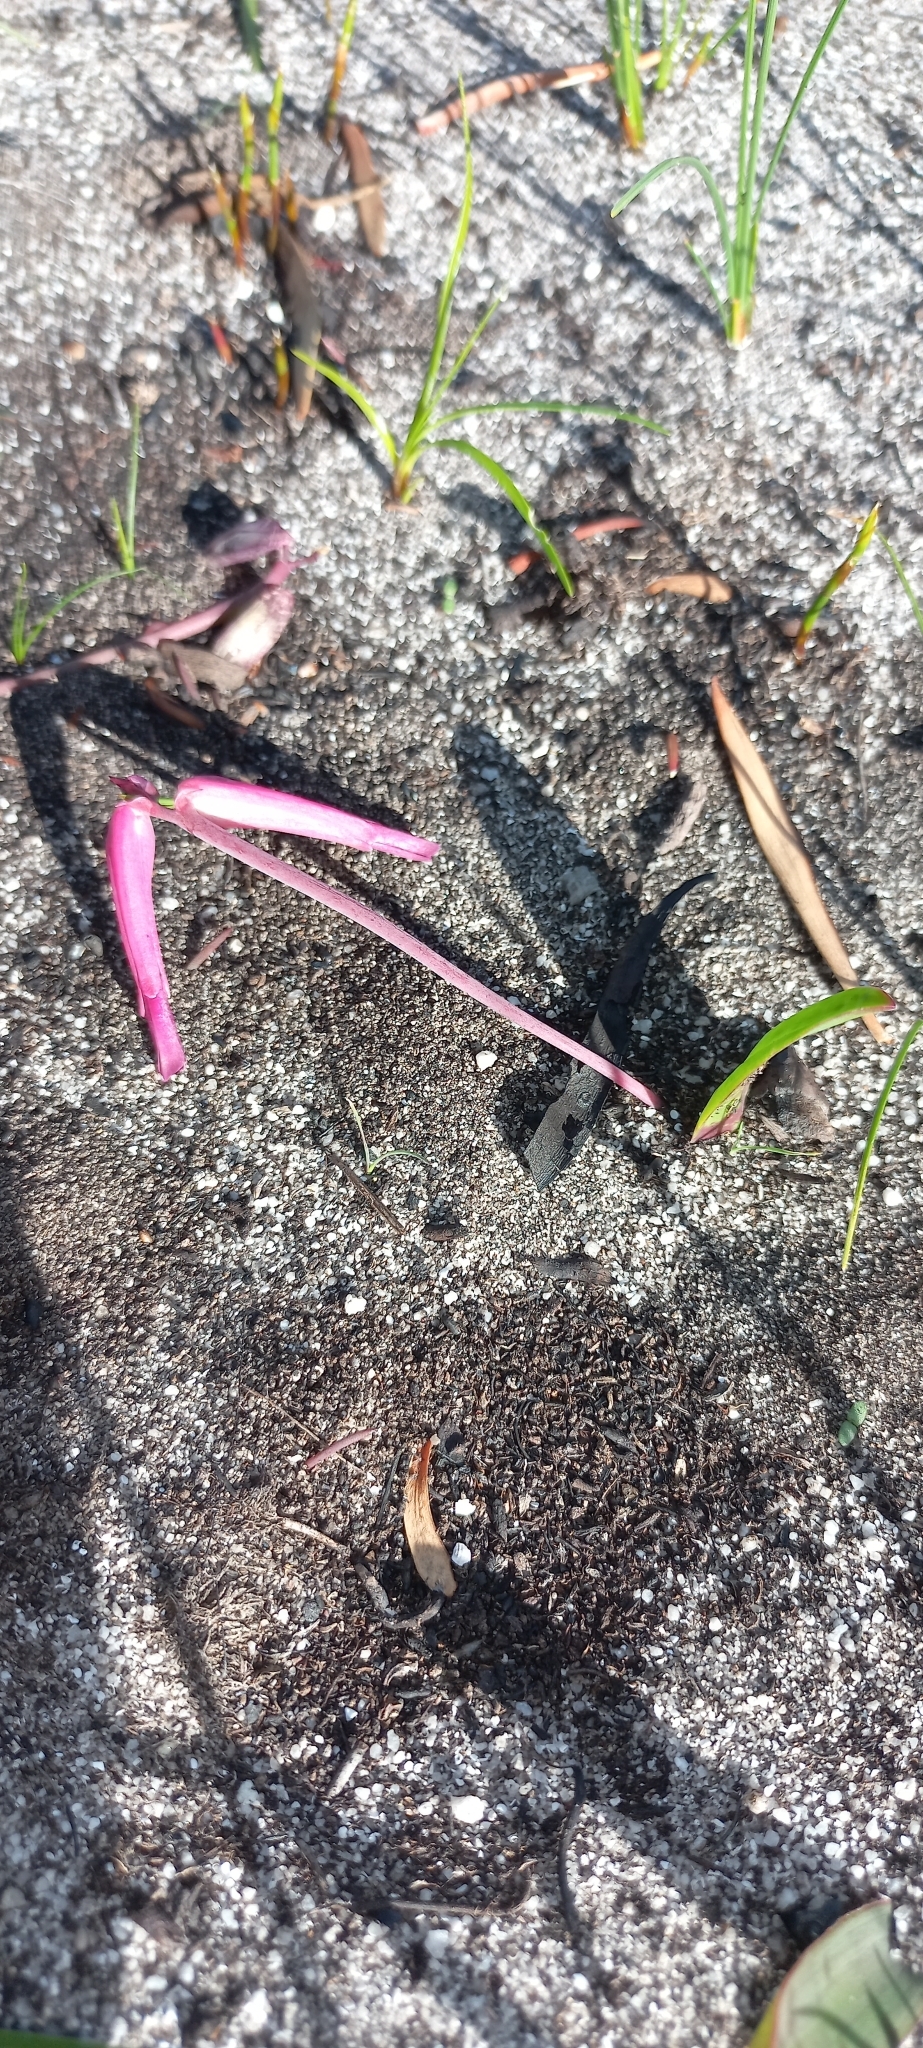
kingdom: Plantae
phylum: Tracheophyta
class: Liliopsida
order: Asparagales
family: Asparagaceae
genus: Lachenalia
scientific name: Lachenalia punctata
